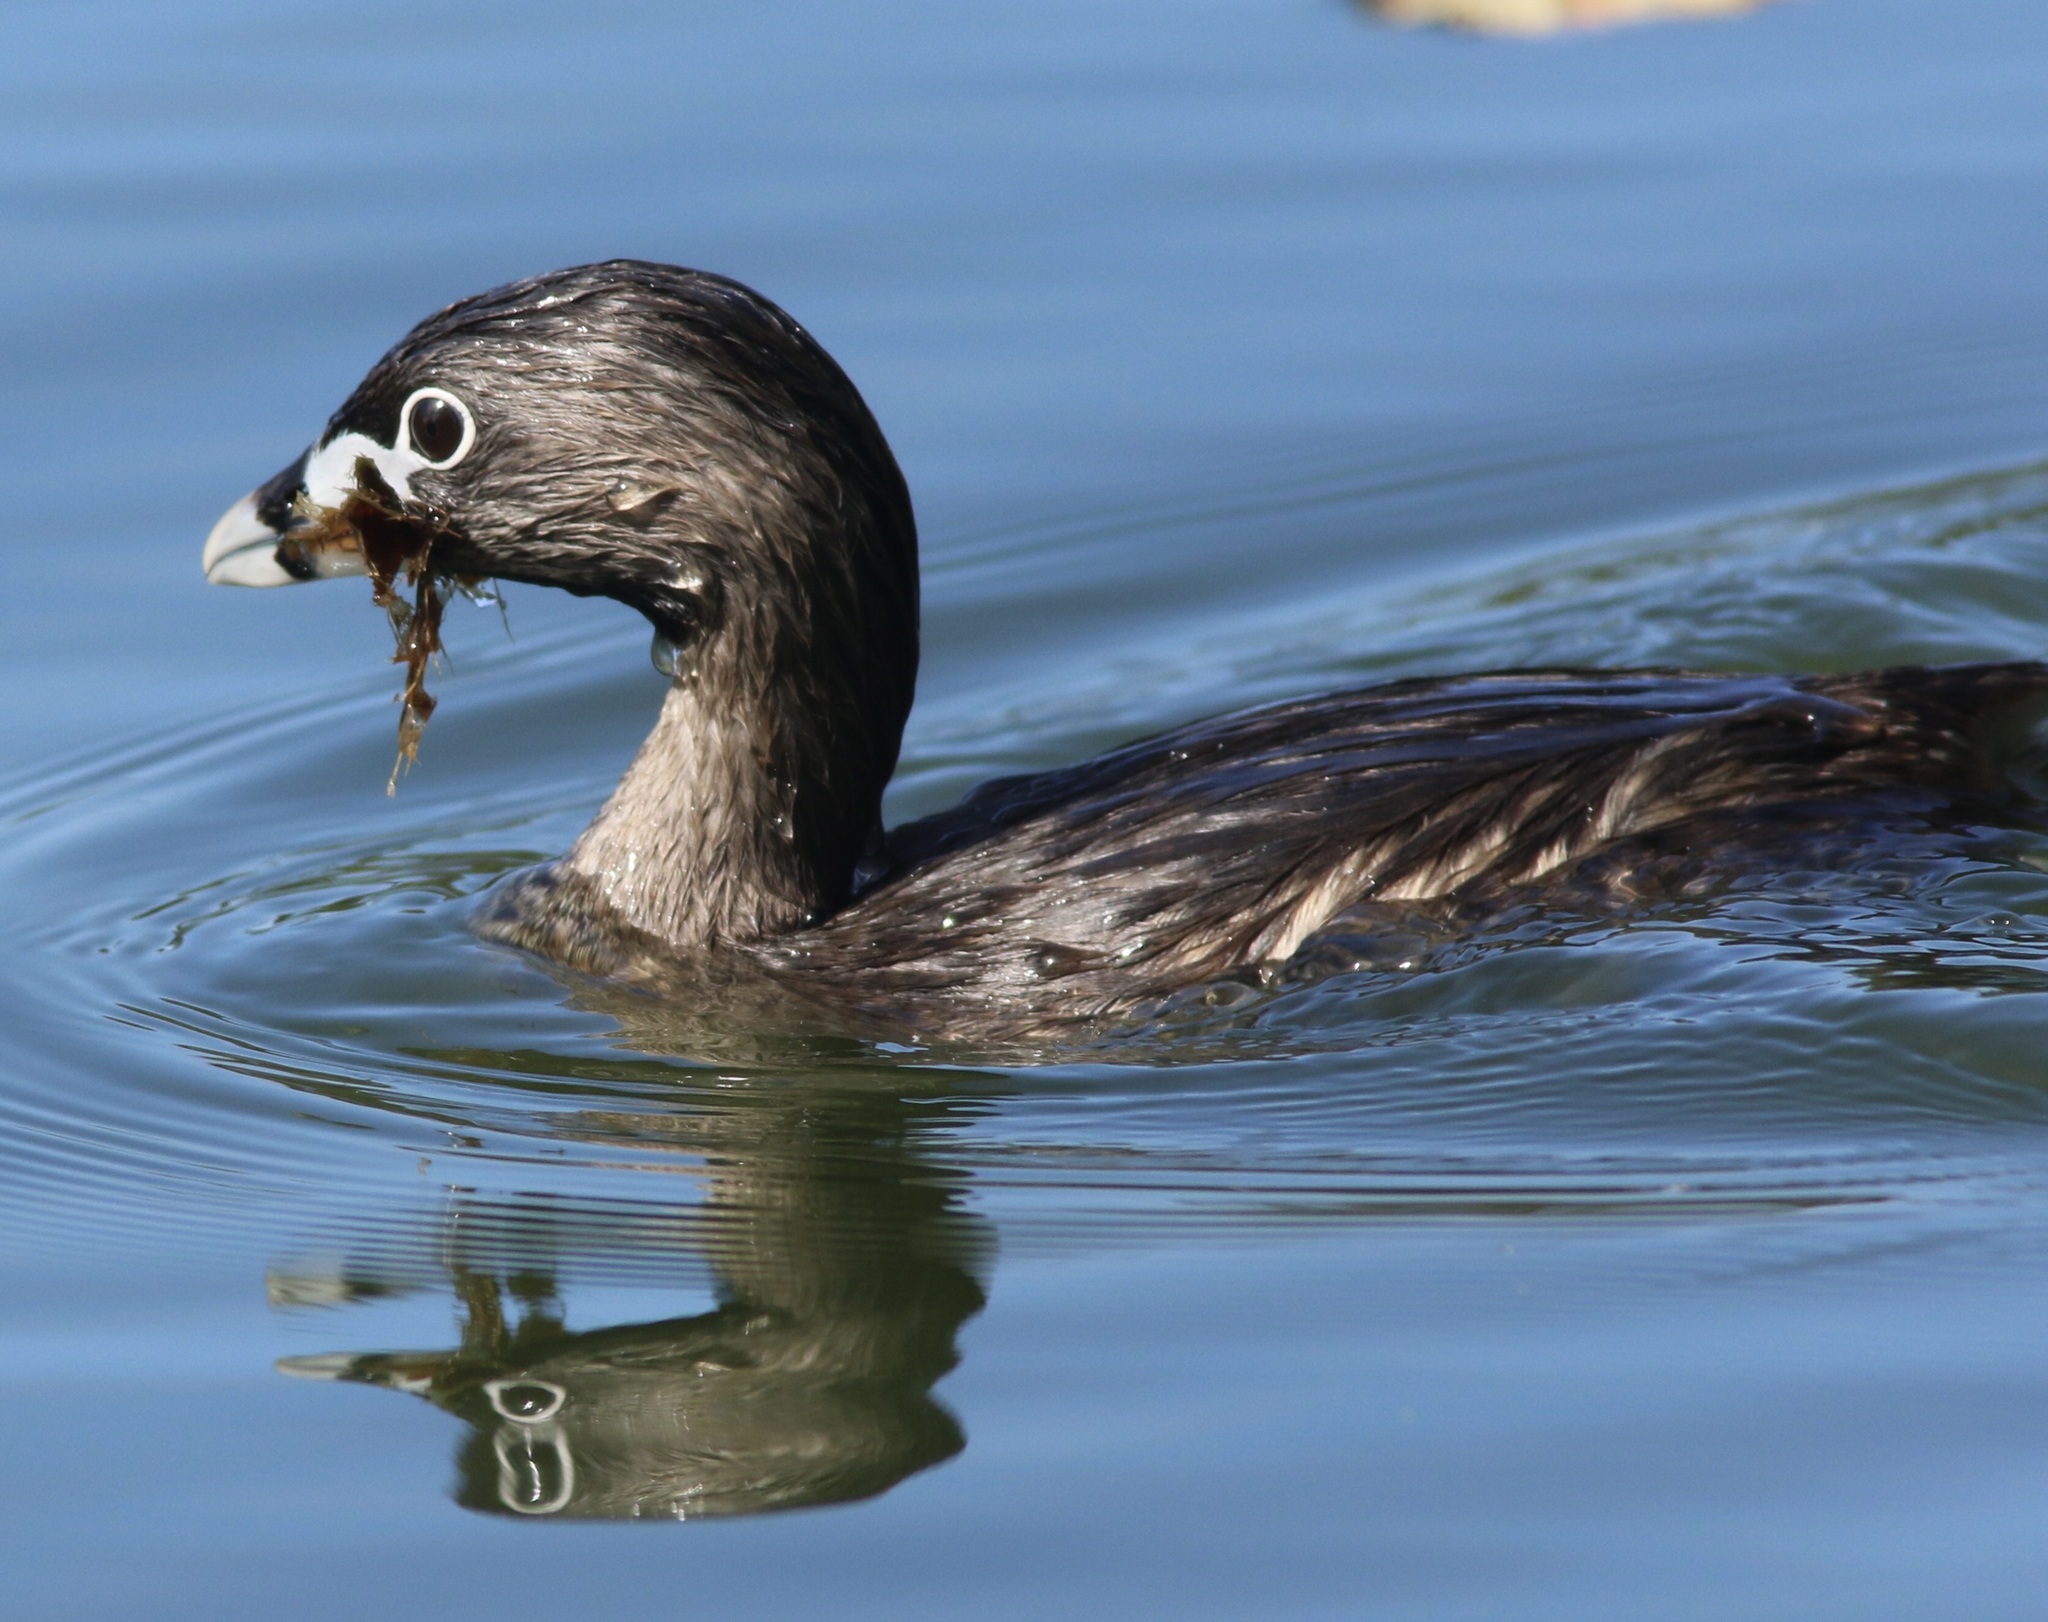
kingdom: Animalia
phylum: Chordata
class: Aves
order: Podicipediformes
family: Podicipedidae
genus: Podilymbus
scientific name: Podilymbus podiceps
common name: Pied-billed grebe
